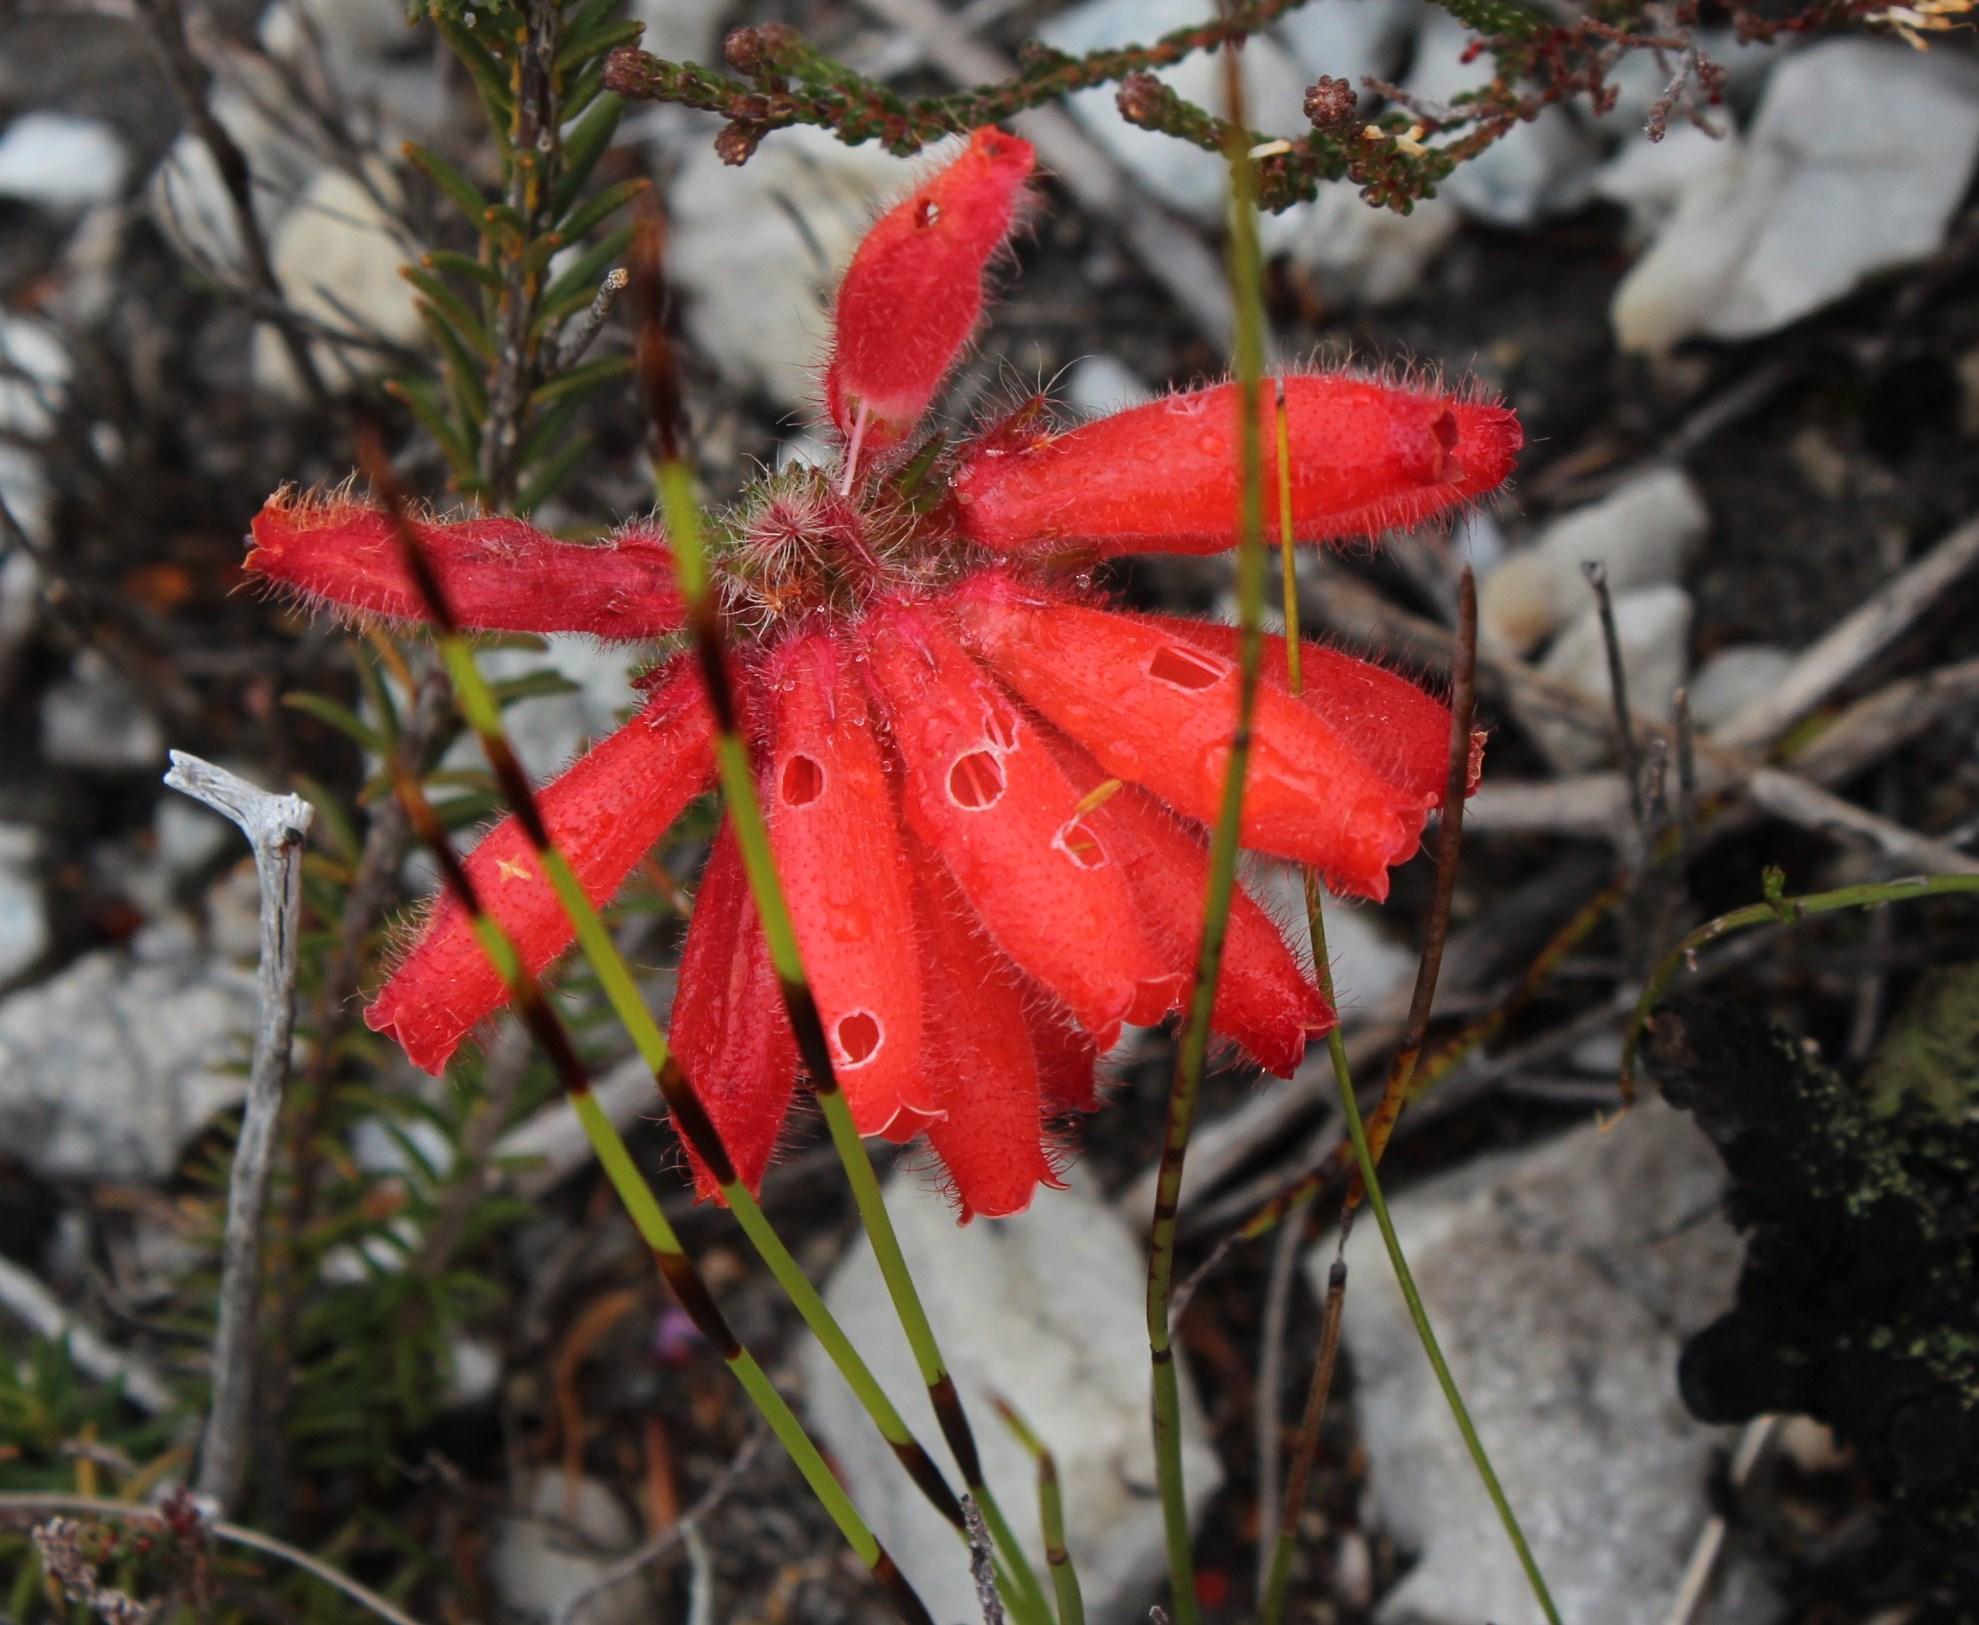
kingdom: Plantae
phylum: Tracheophyta
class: Magnoliopsida
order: Ericales
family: Ericaceae
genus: Erica
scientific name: Erica cerinthoides
